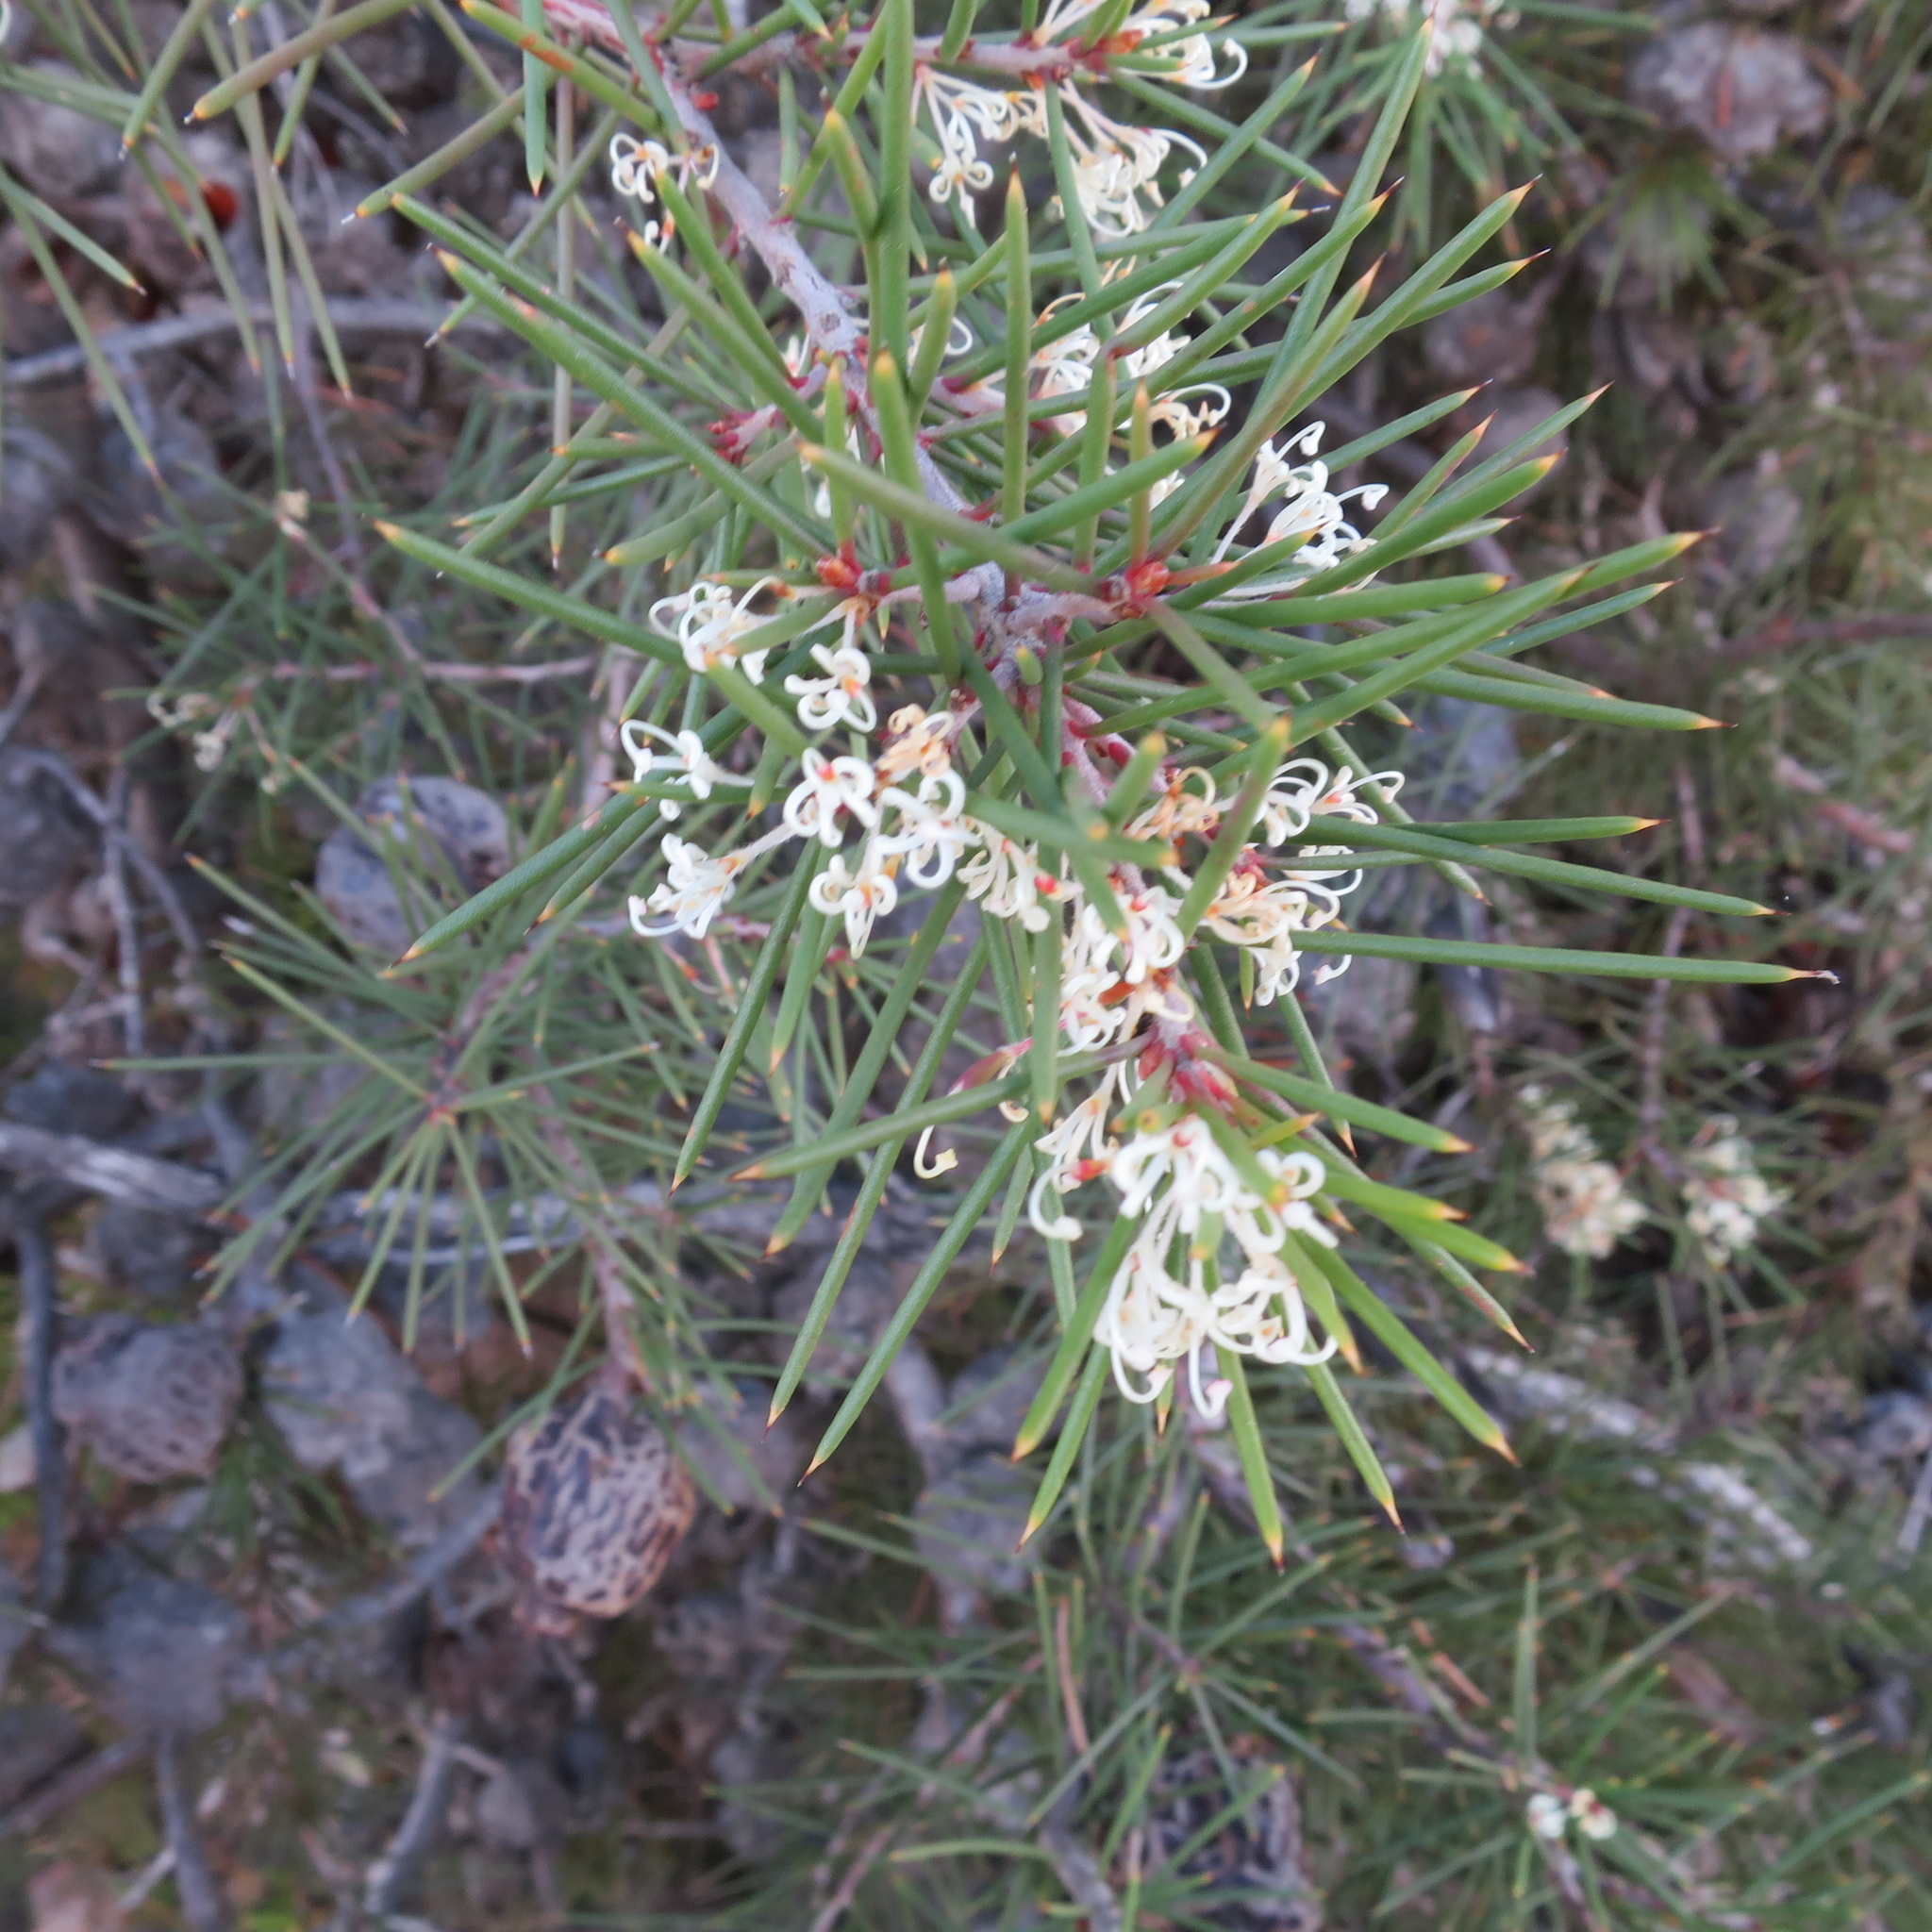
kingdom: Plantae
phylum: Tracheophyta
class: Magnoliopsida
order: Proteales
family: Proteaceae
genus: Hakea
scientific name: Hakea sericea
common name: Needle bush
